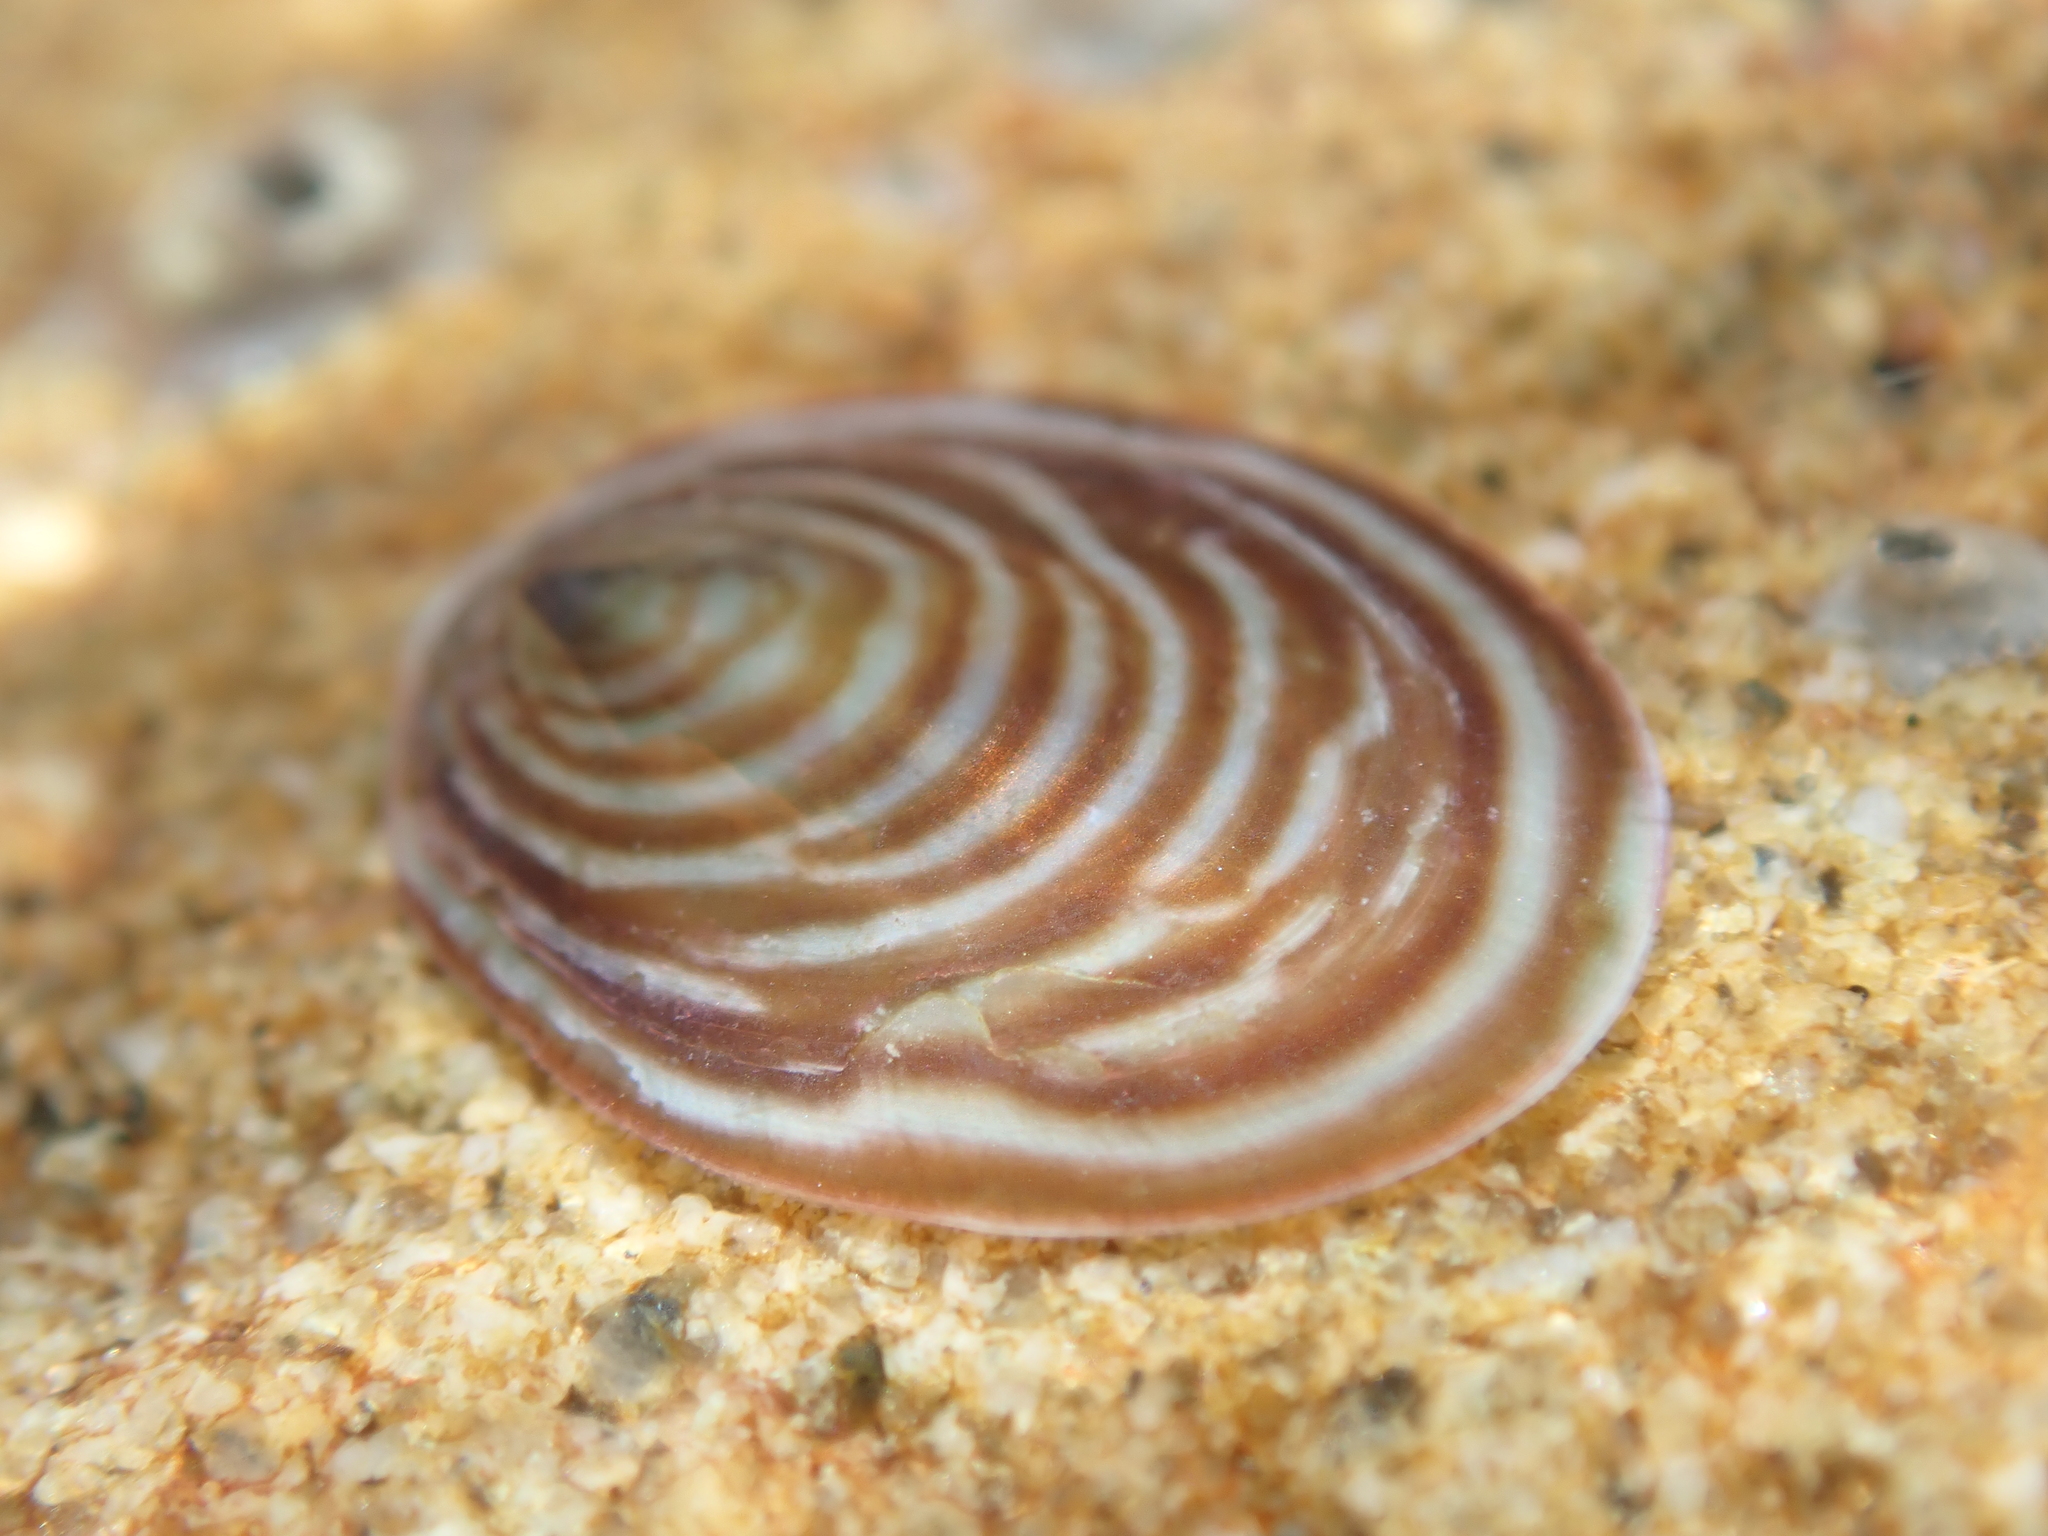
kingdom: Animalia
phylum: Mollusca
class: Gastropoda
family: Lottiidae
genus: Atalacmea
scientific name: Atalacmea fragilis
